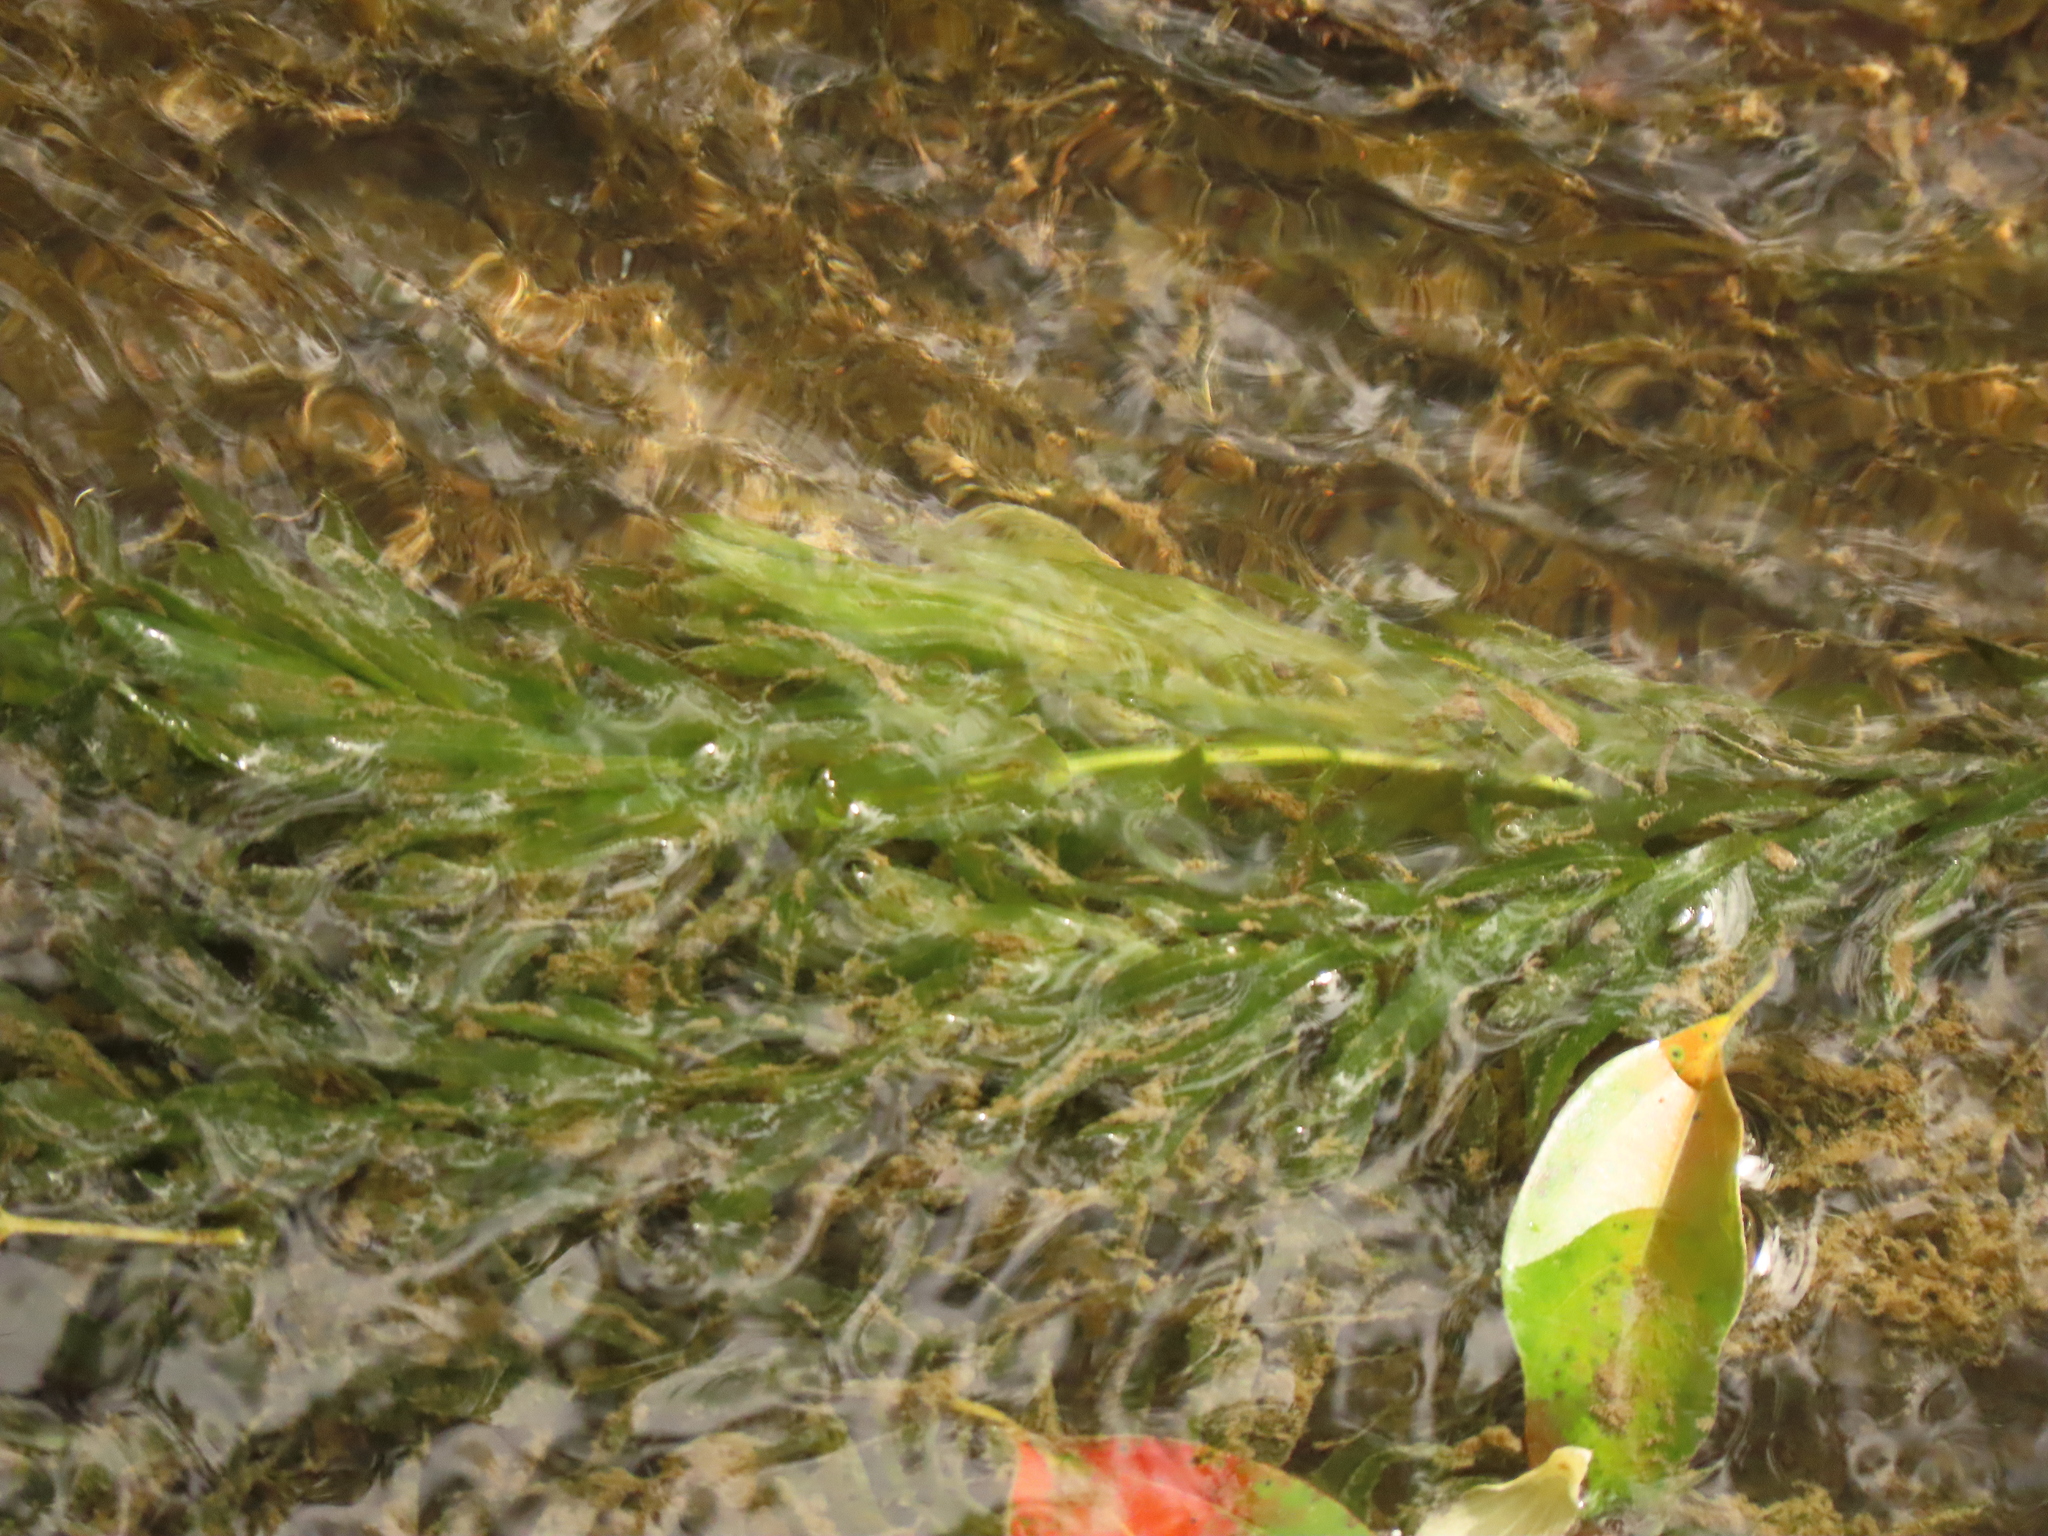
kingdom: Plantae
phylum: Tracheophyta
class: Liliopsida
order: Alismatales
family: Hydrocharitaceae
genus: Elodea
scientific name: Elodea densa
